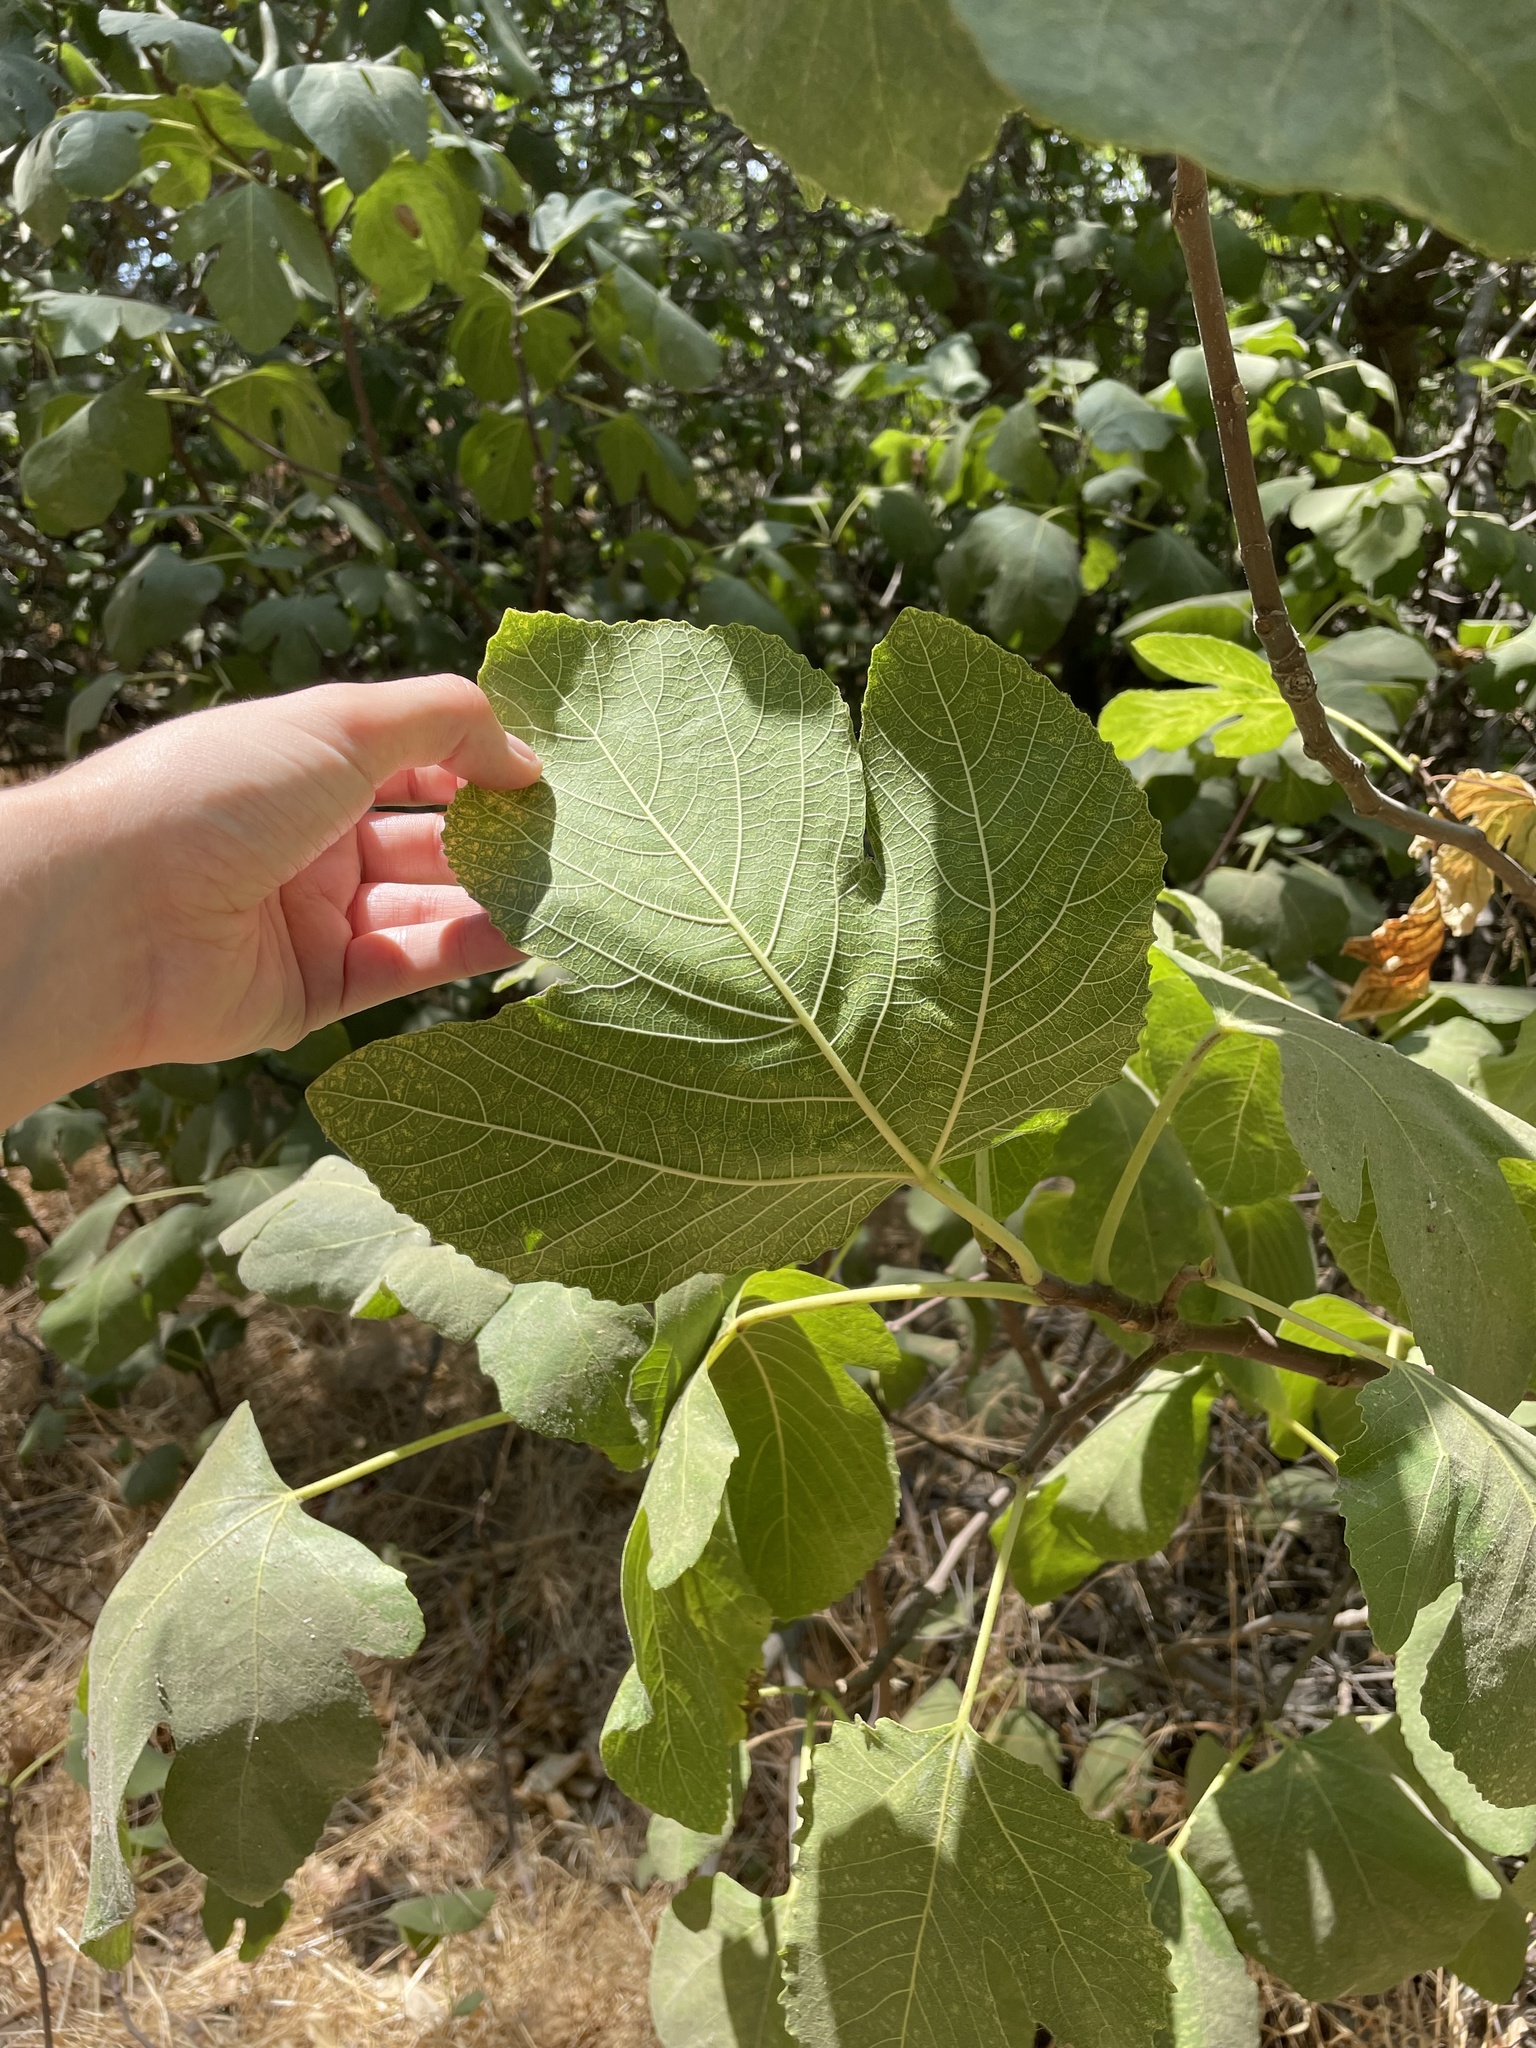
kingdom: Plantae
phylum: Tracheophyta
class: Magnoliopsida
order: Rosales
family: Moraceae
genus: Ficus
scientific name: Ficus carica
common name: Fig
